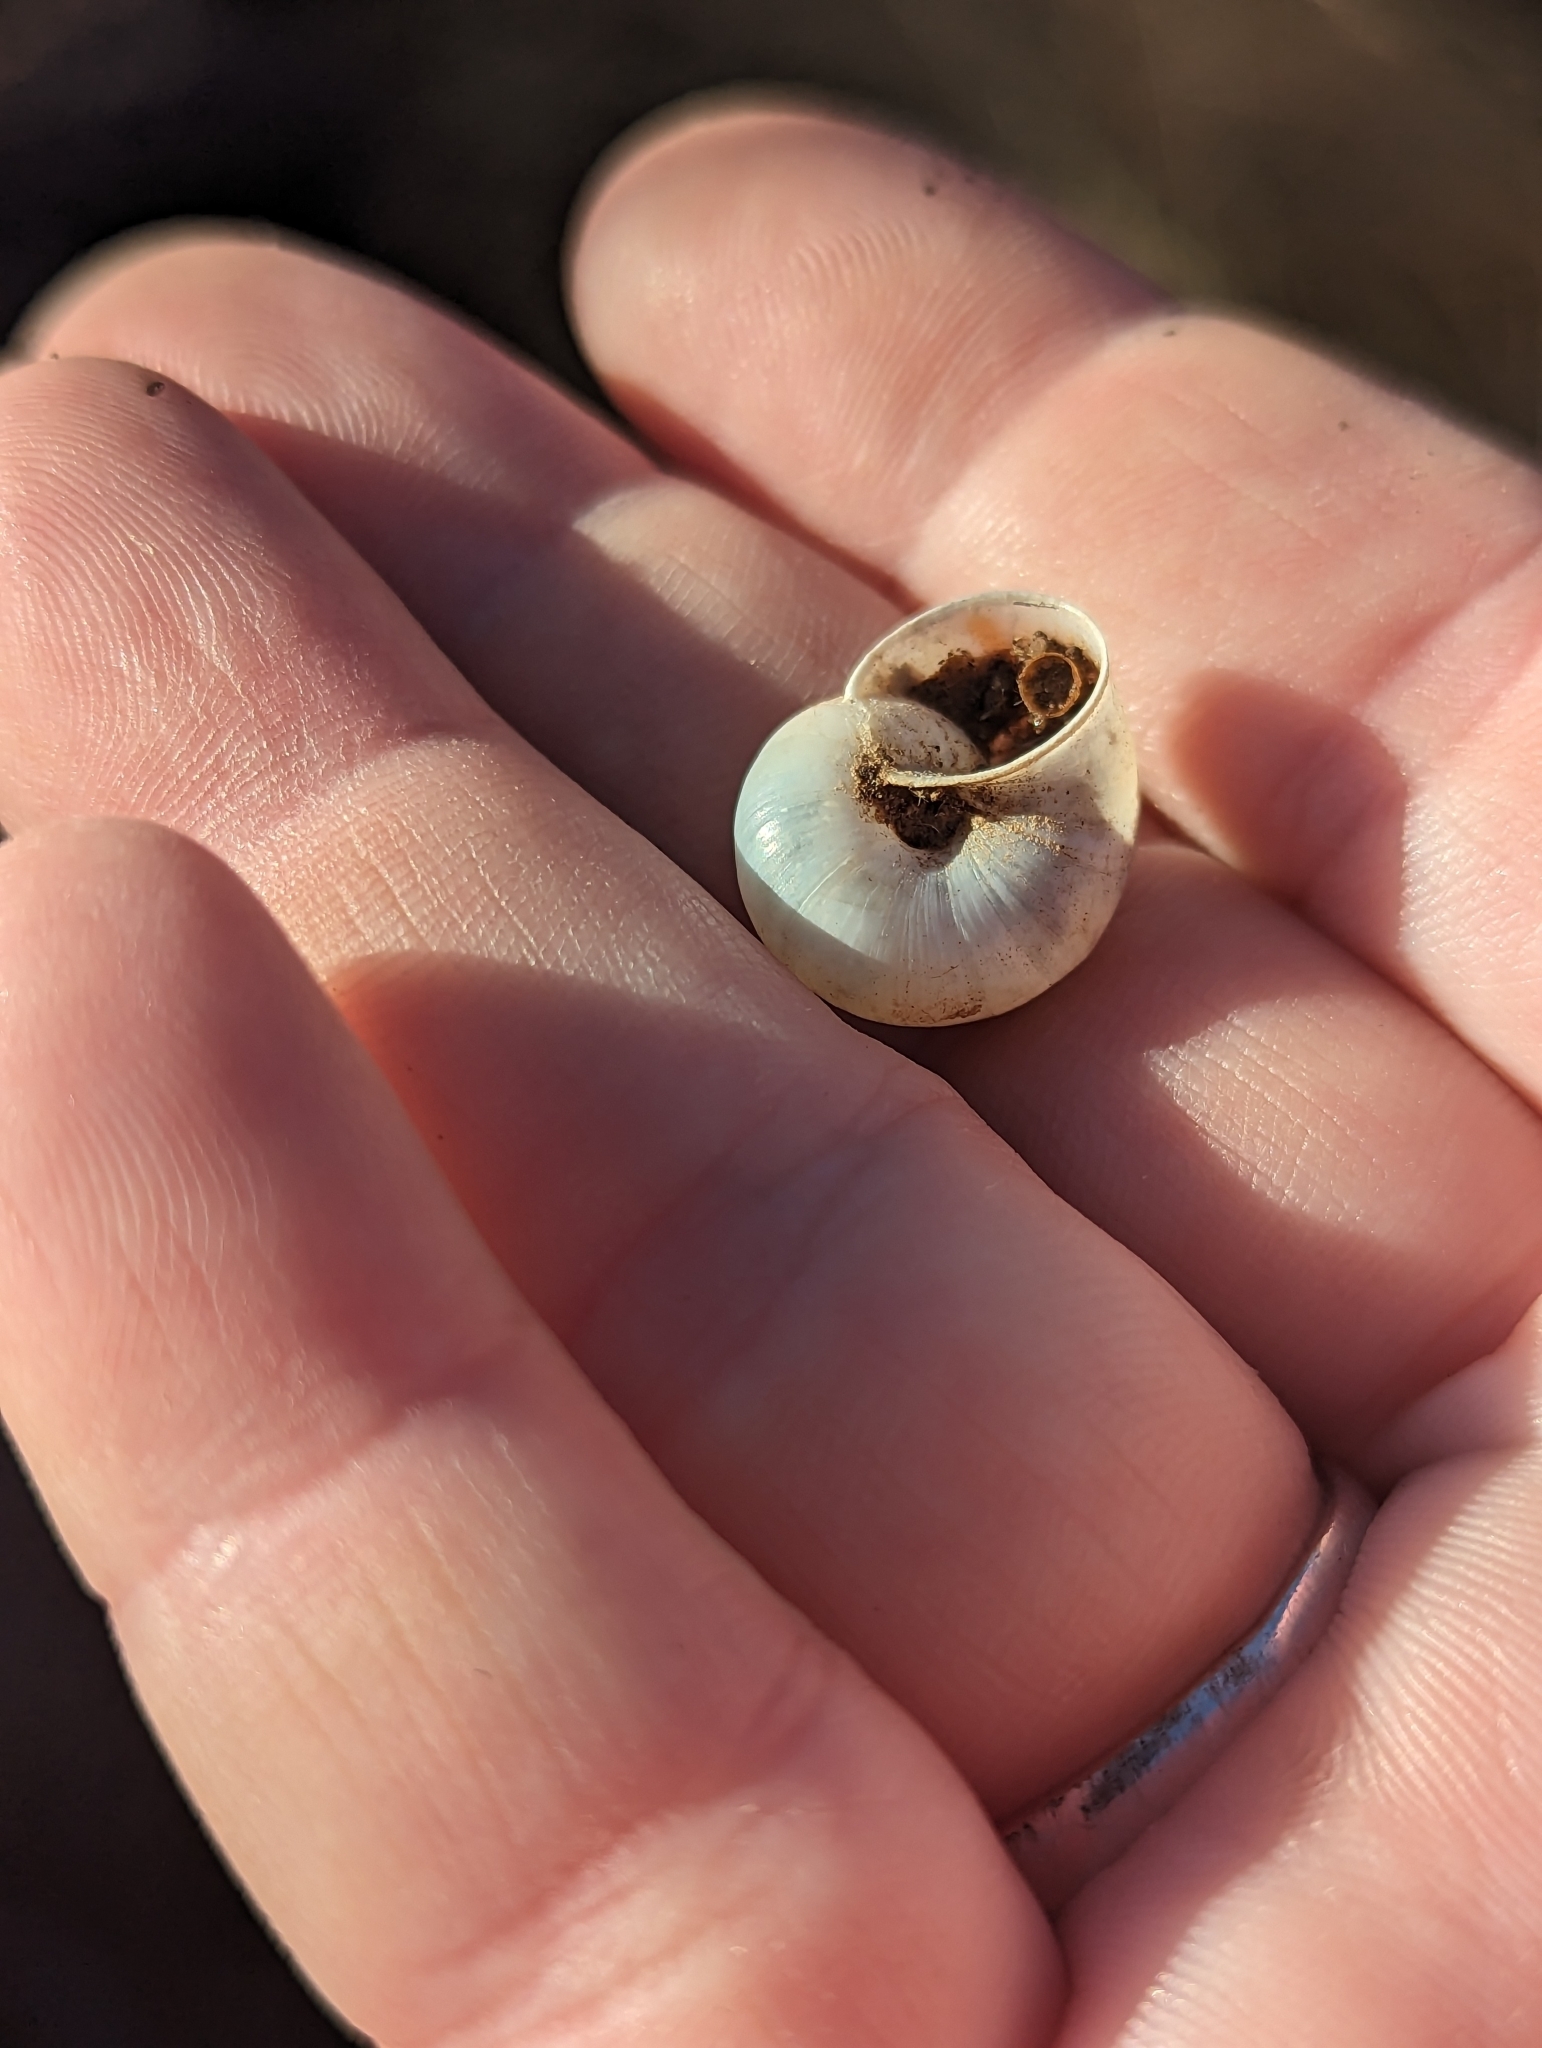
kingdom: Animalia
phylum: Mollusca
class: Gastropoda
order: Stylommatophora
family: Xanthonychidae
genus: Maricopella
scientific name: Maricopella allynsmithi
